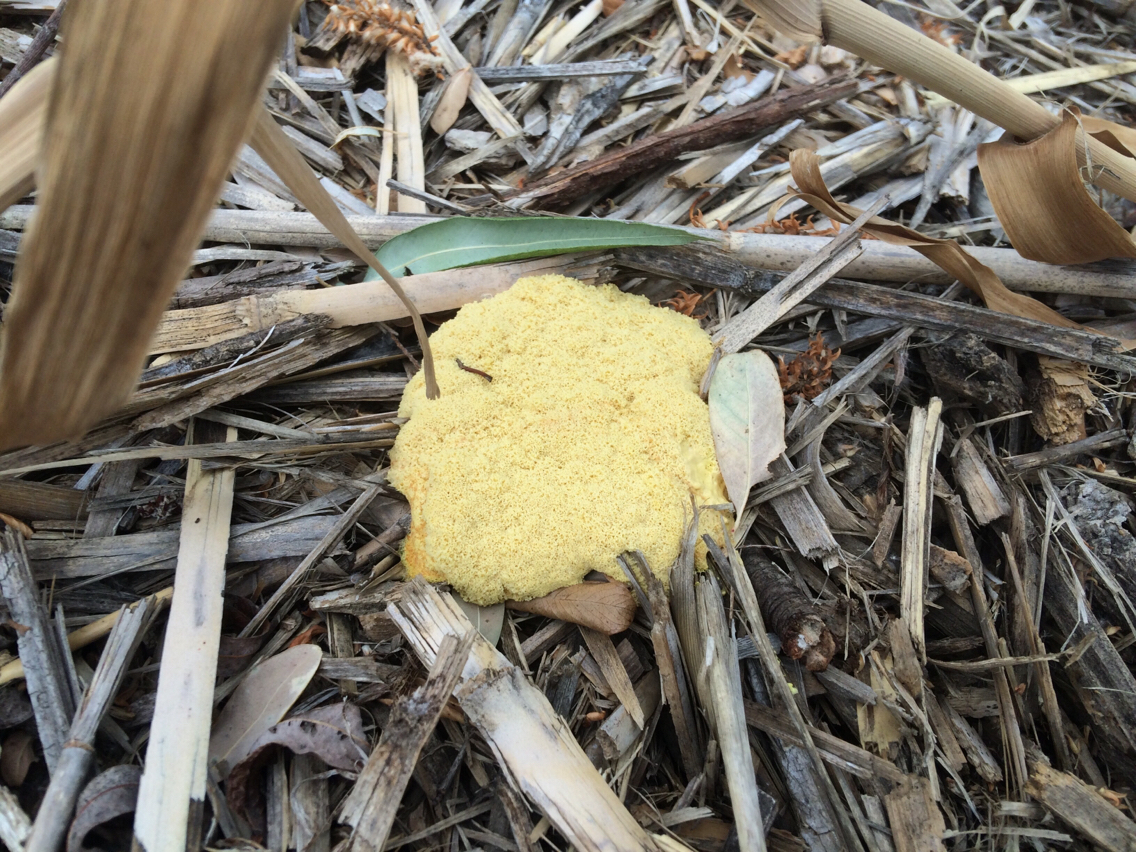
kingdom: Protozoa
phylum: Mycetozoa
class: Myxomycetes
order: Physarales
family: Physaraceae
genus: Fuligo
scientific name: Fuligo septica
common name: Dog vomit slime mold
